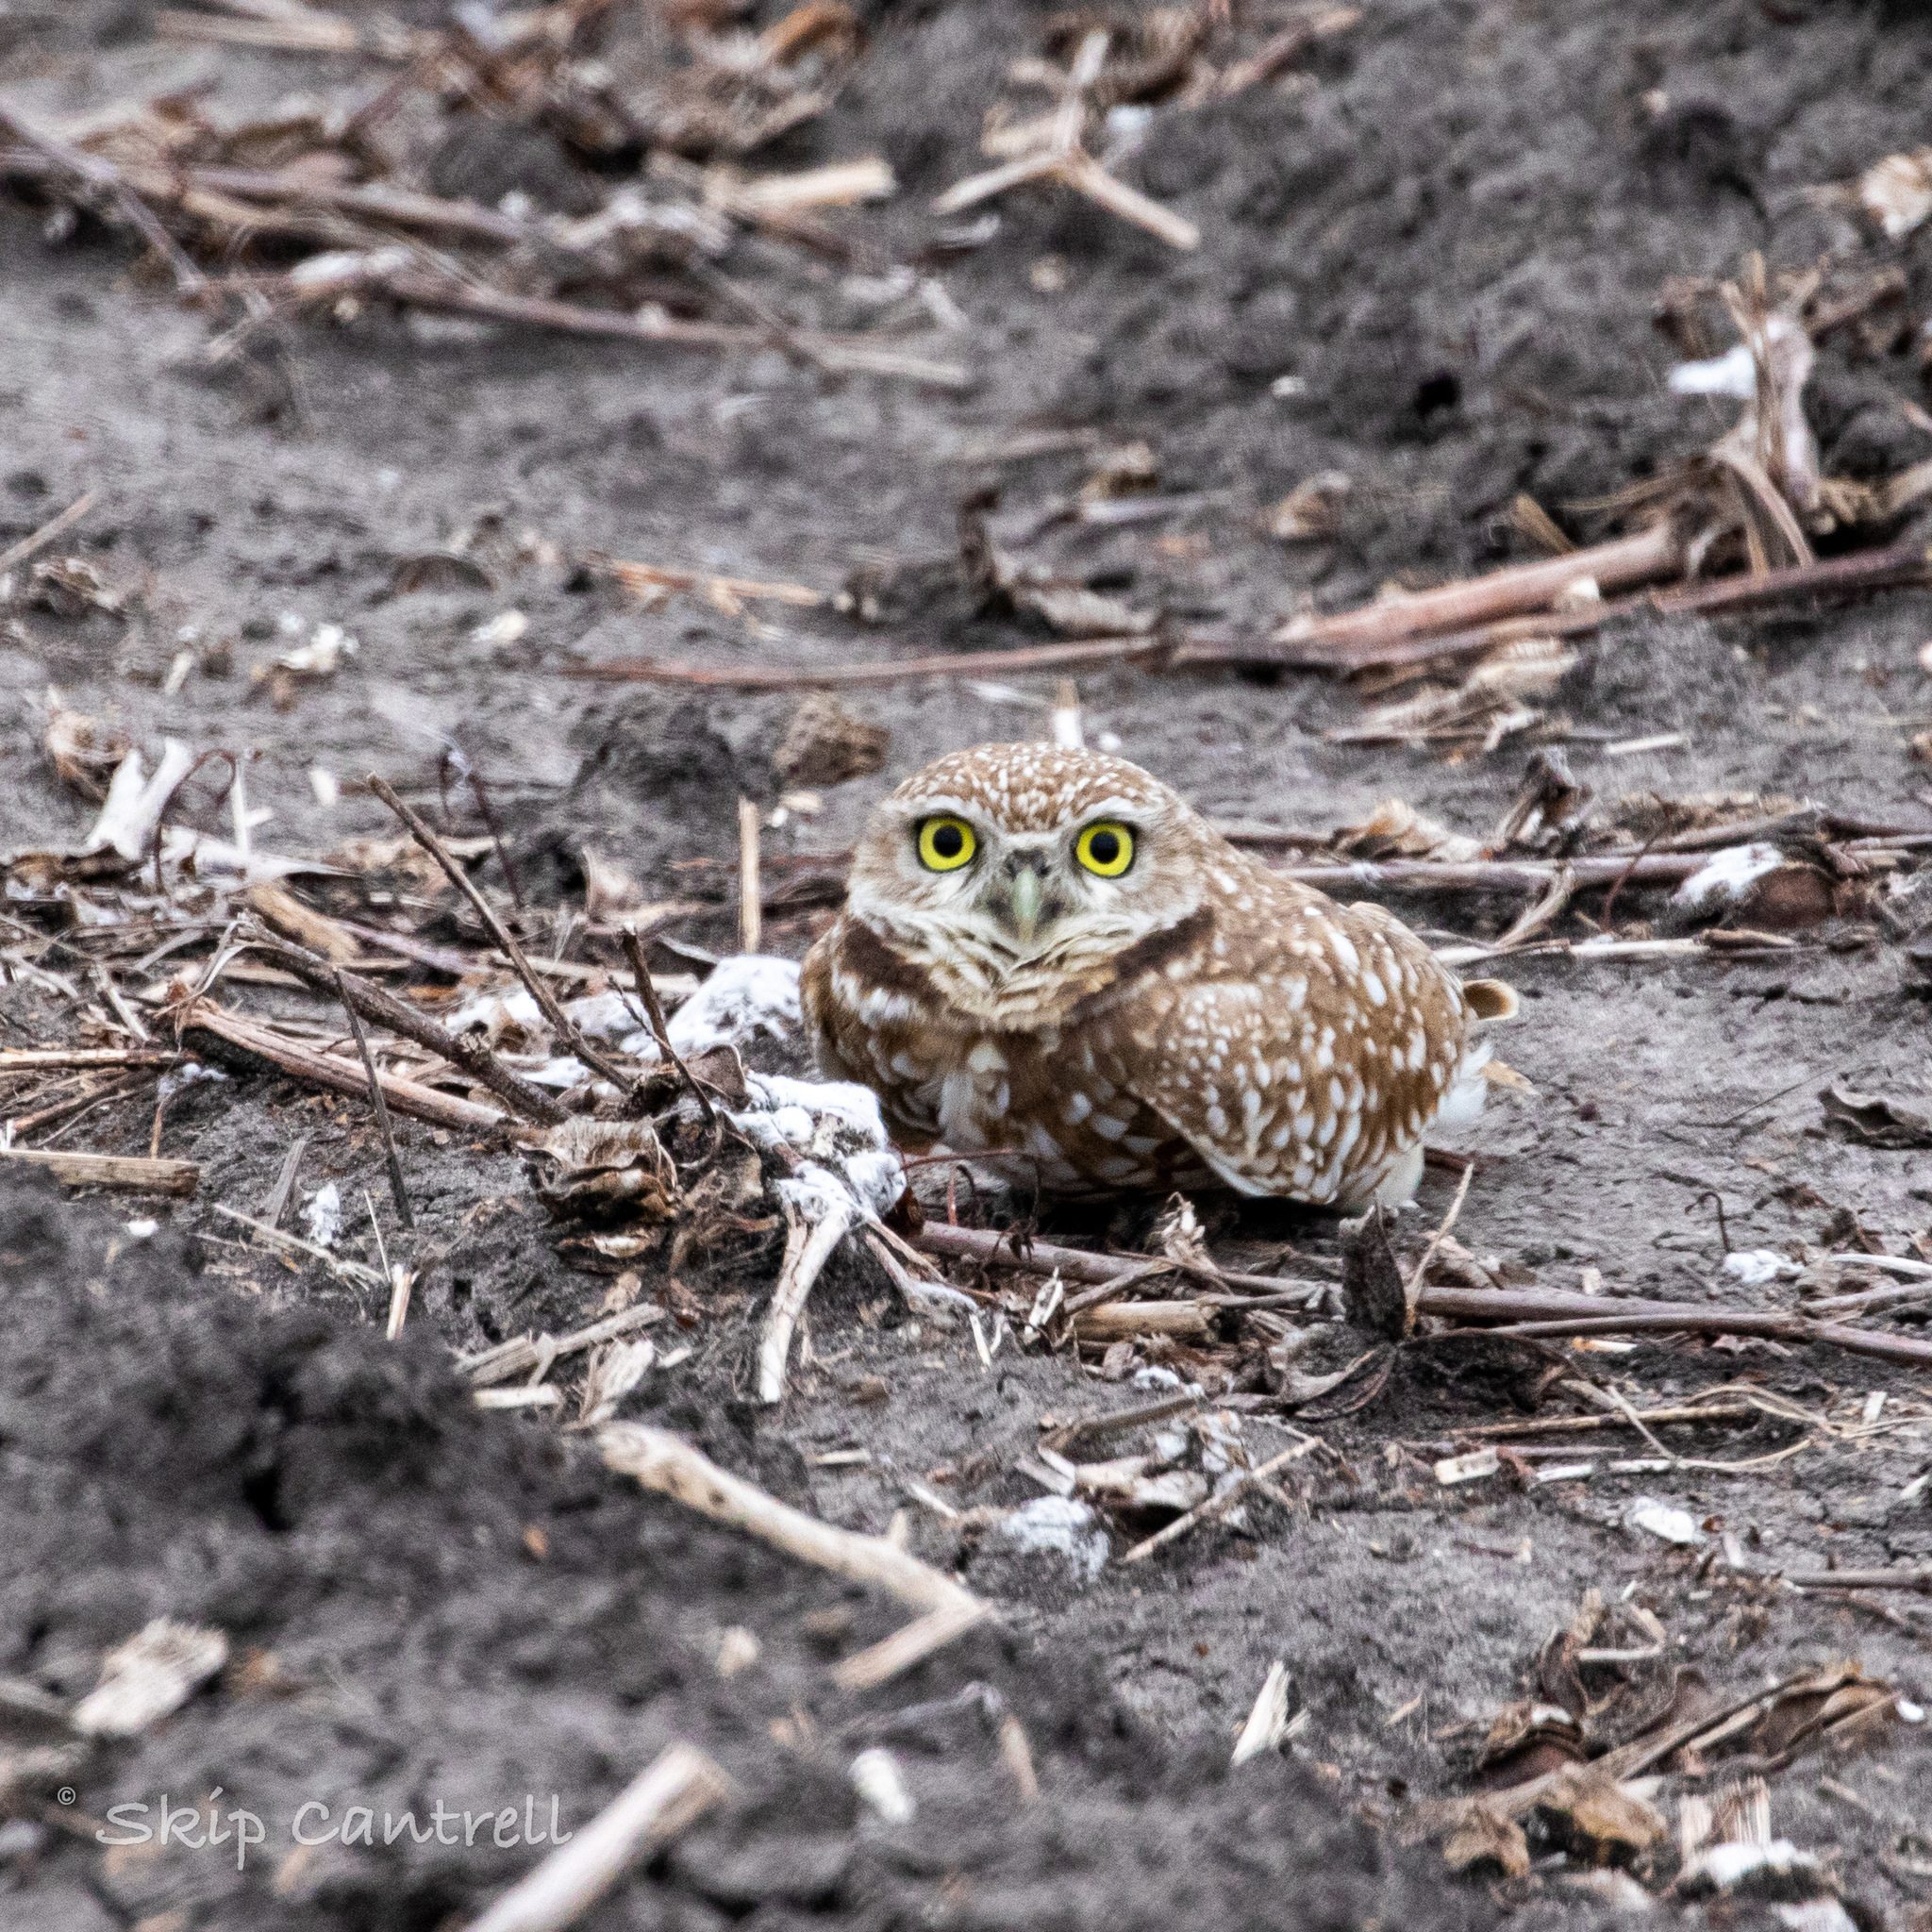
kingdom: Animalia
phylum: Chordata
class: Aves
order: Strigiformes
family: Strigidae
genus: Athene
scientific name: Athene cunicularia
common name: Burrowing owl
